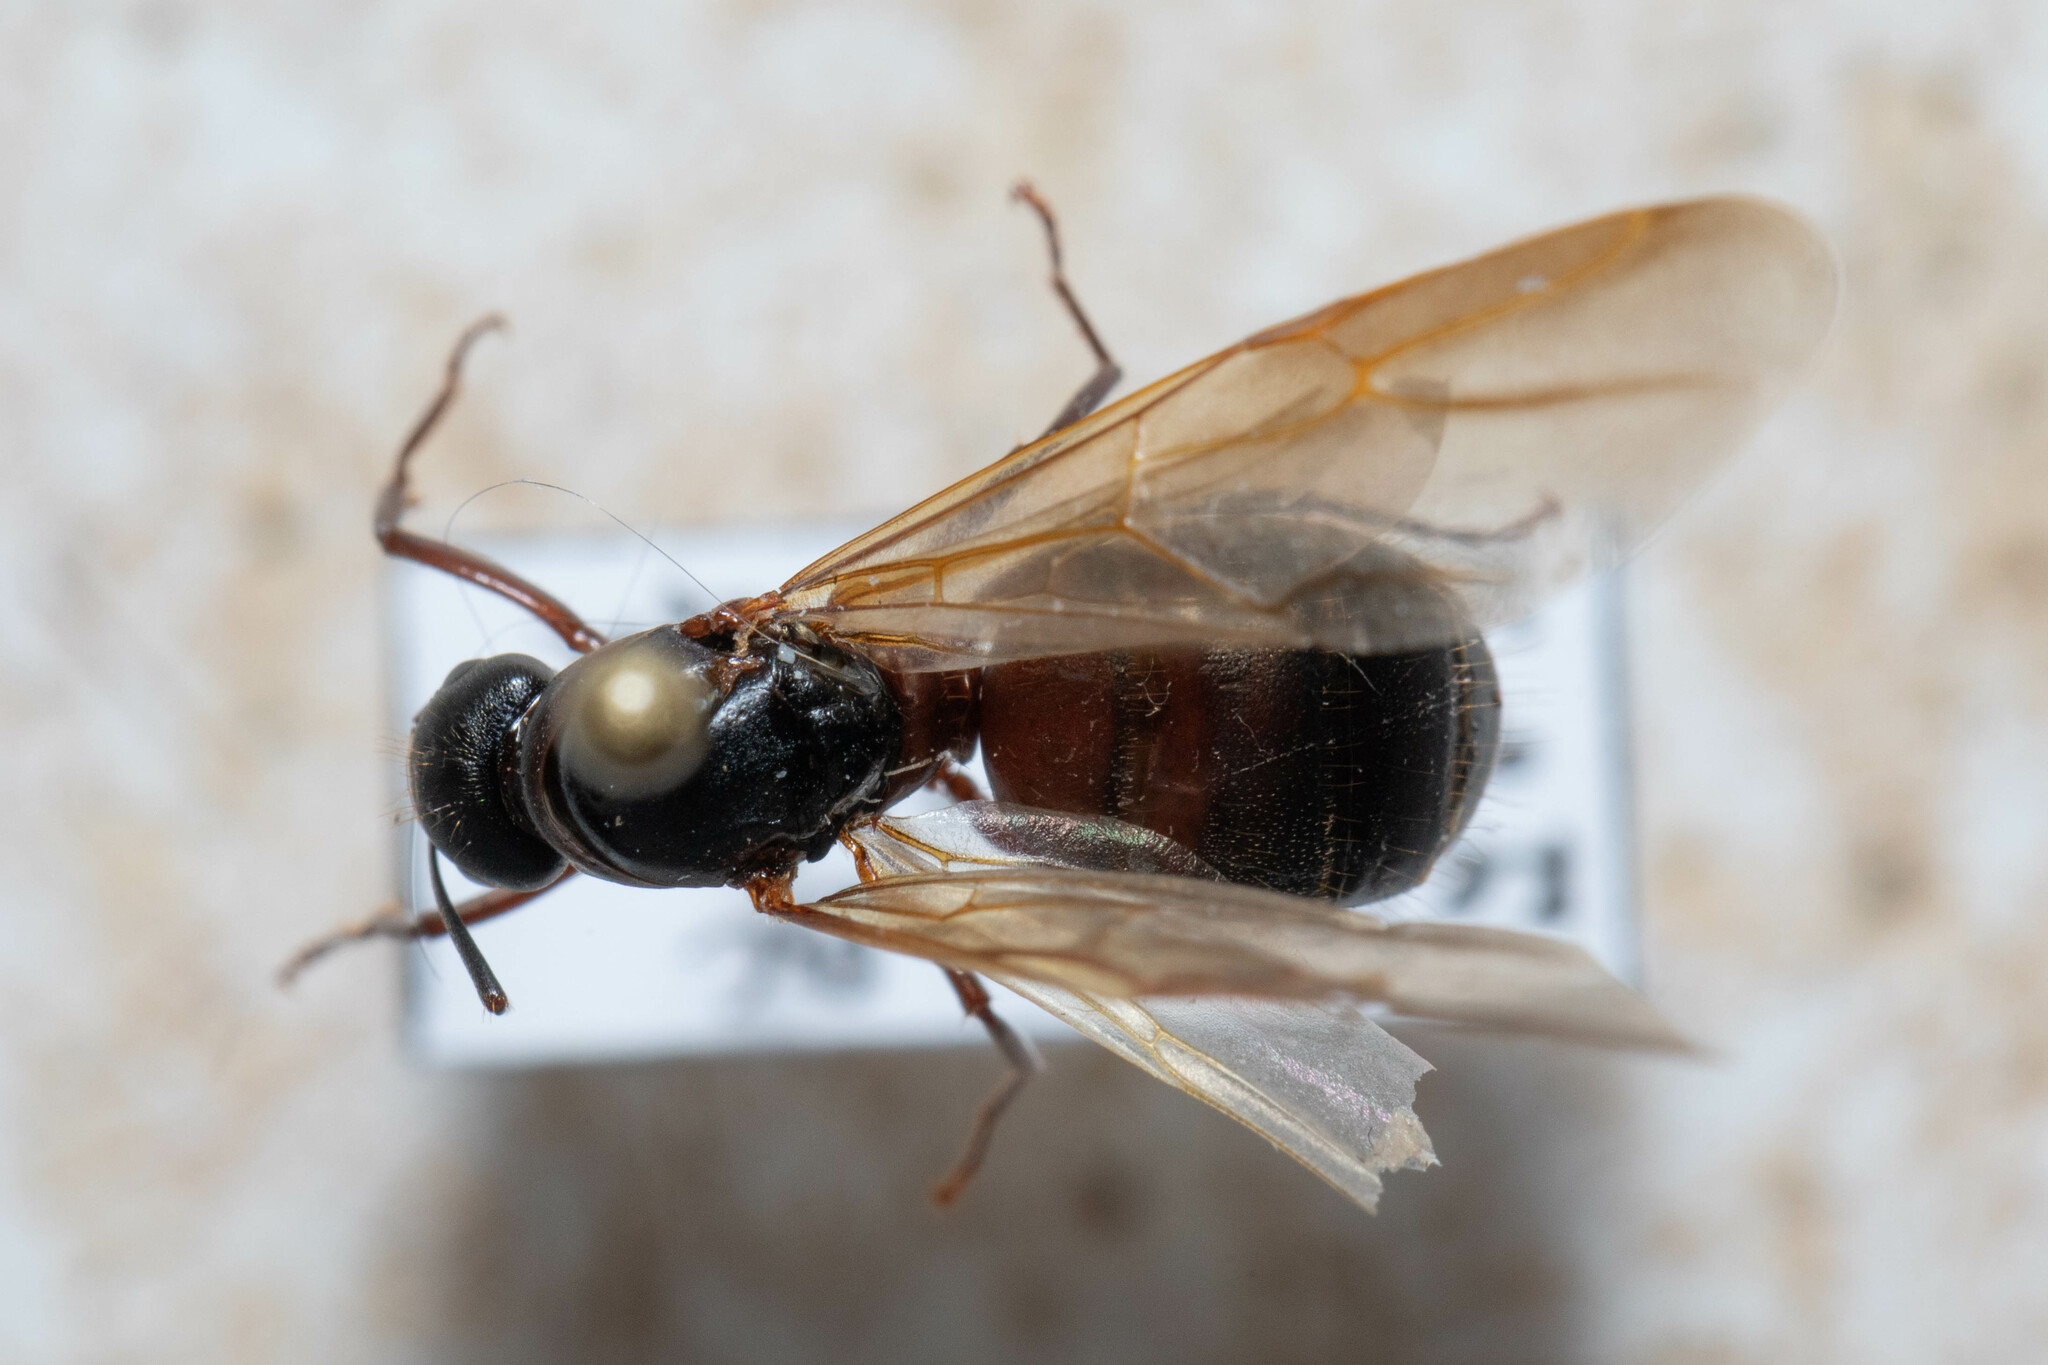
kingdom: Animalia
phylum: Arthropoda
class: Insecta
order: Hymenoptera
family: Formicidae
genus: Camponotus
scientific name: Camponotus vicinus
